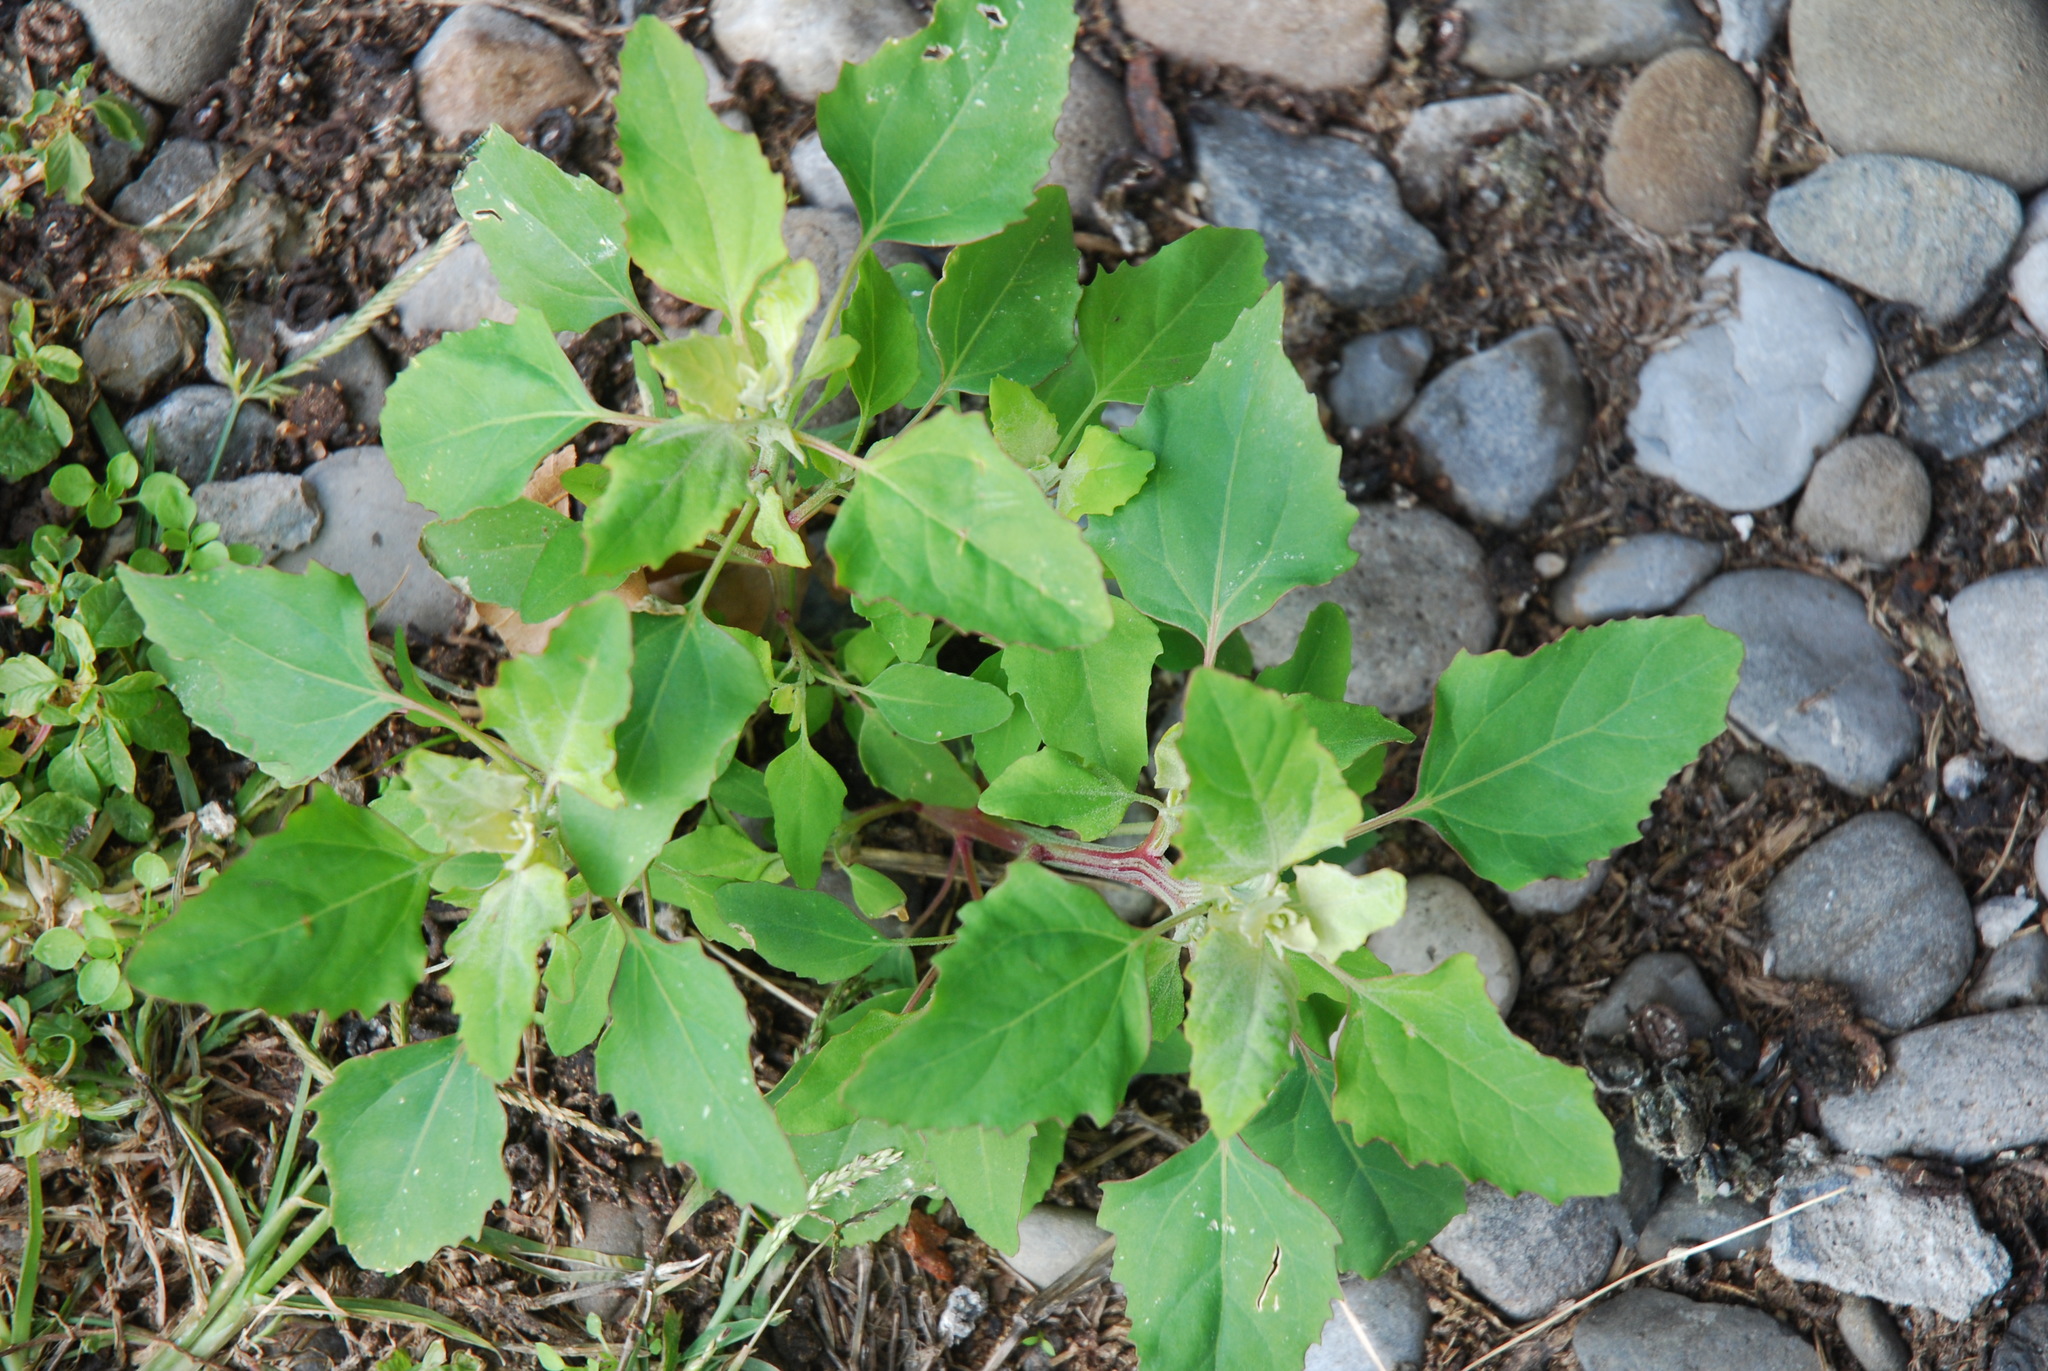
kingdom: Plantae
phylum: Tracheophyta
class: Magnoliopsida
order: Caryophyllales
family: Amaranthaceae
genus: Chenopodium
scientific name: Chenopodium album
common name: Fat-hen
